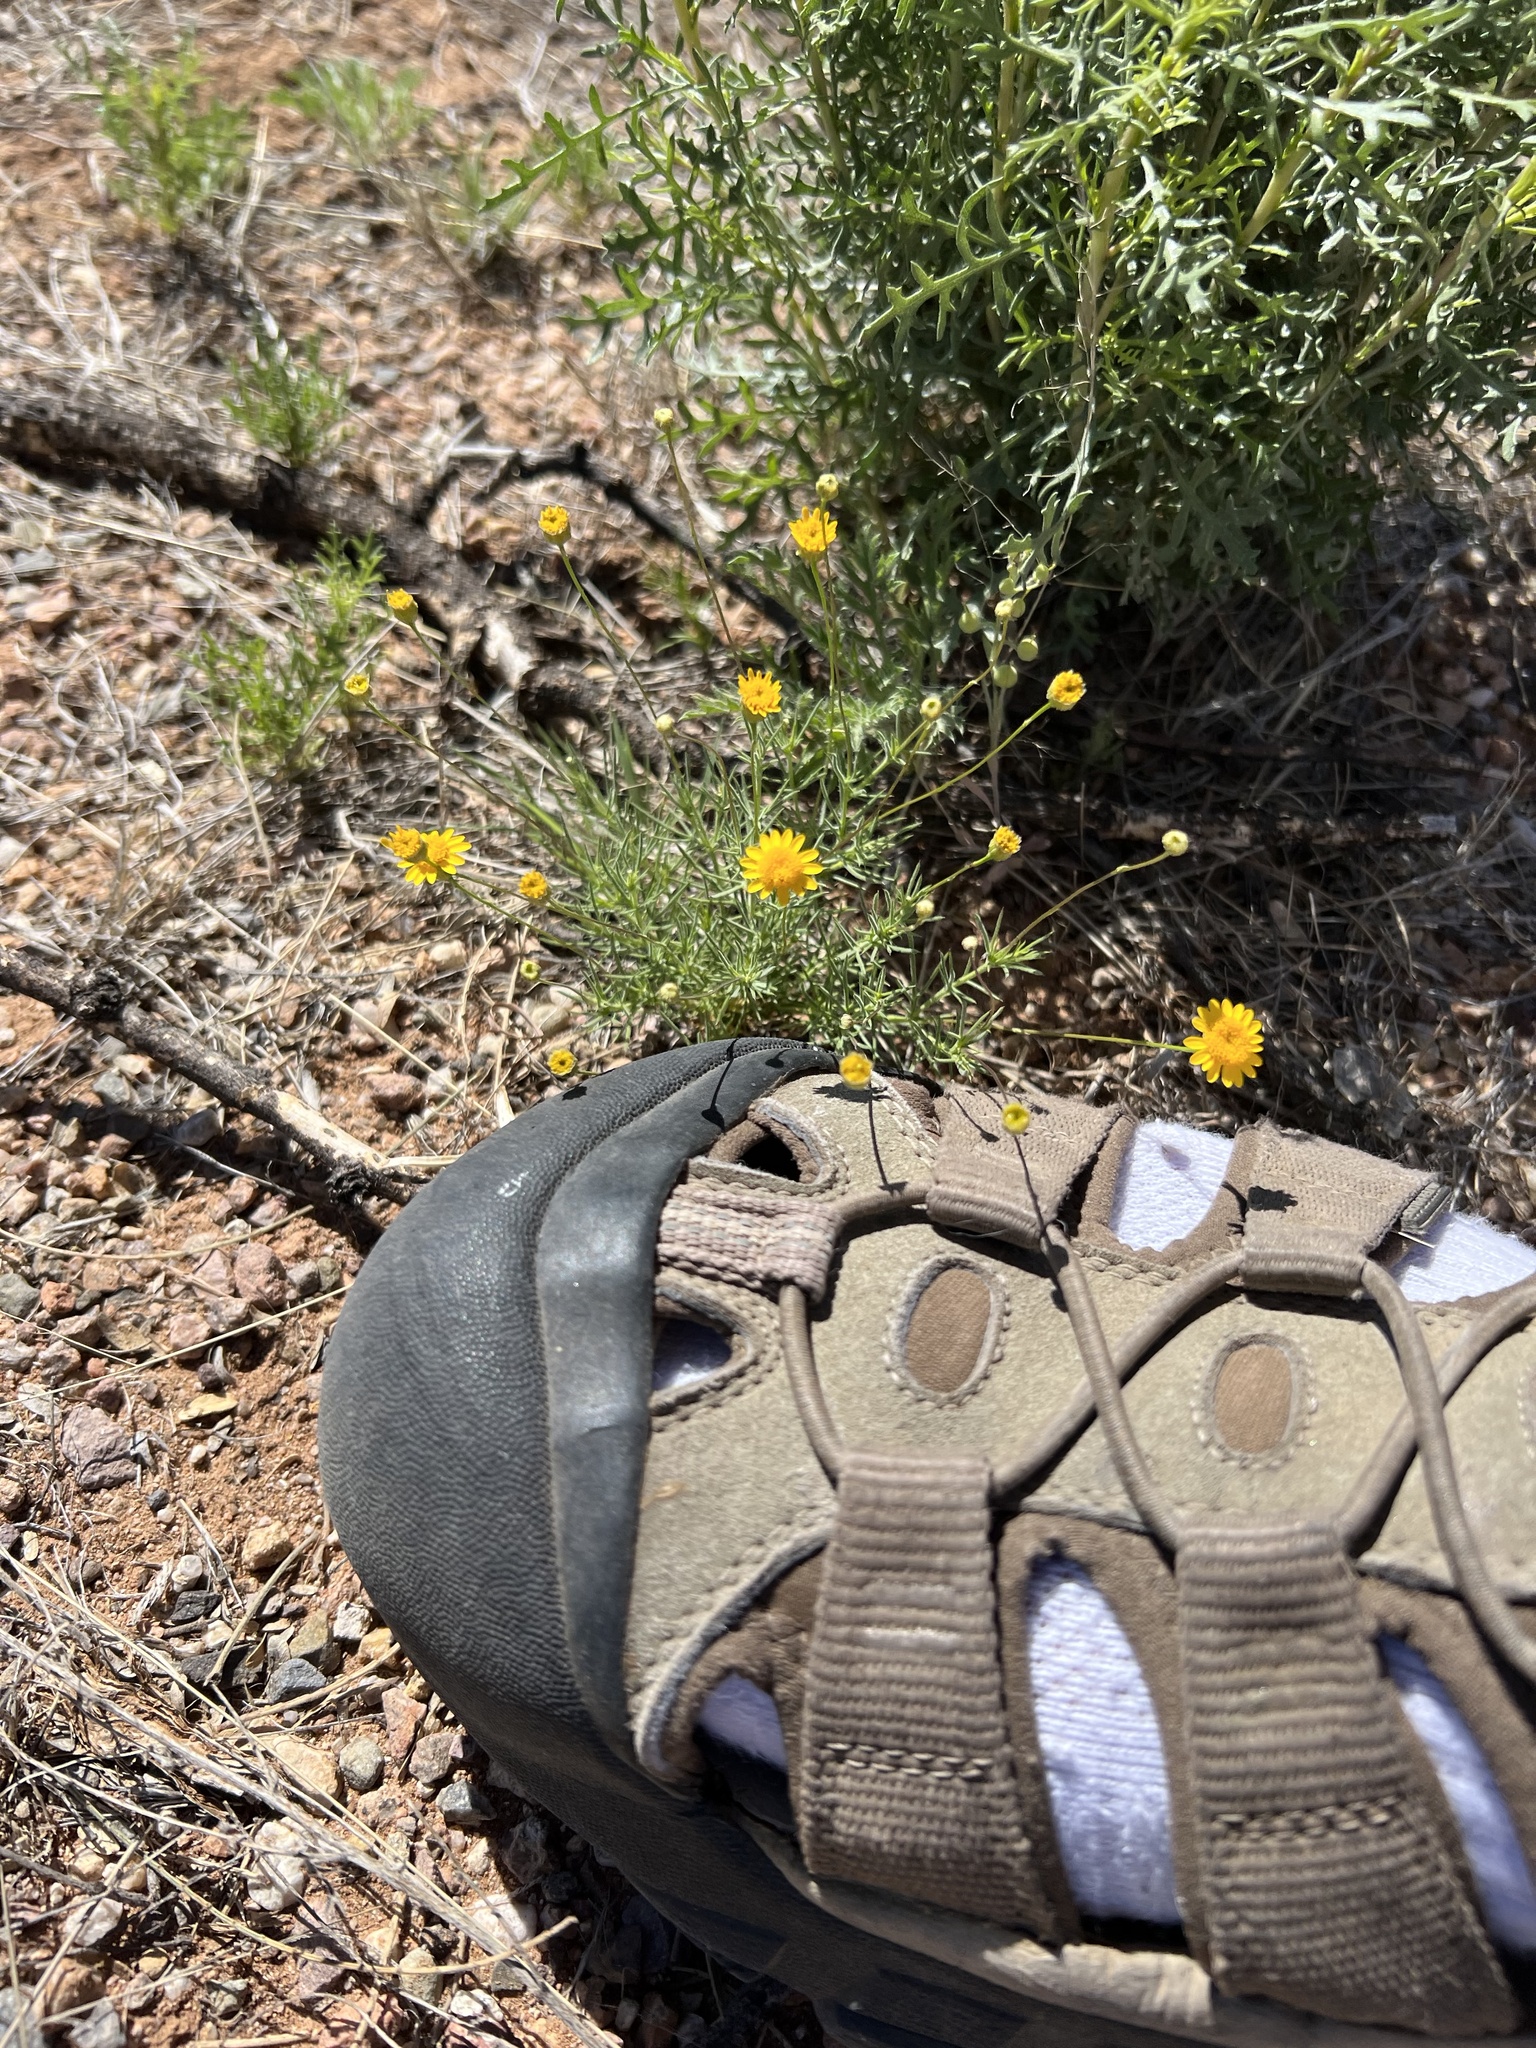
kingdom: Plantae
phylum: Tracheophyta
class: Magnoliopsida
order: Asterales
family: Asteraceae
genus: Thymophylla
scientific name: Thymophylla pentachaeta
